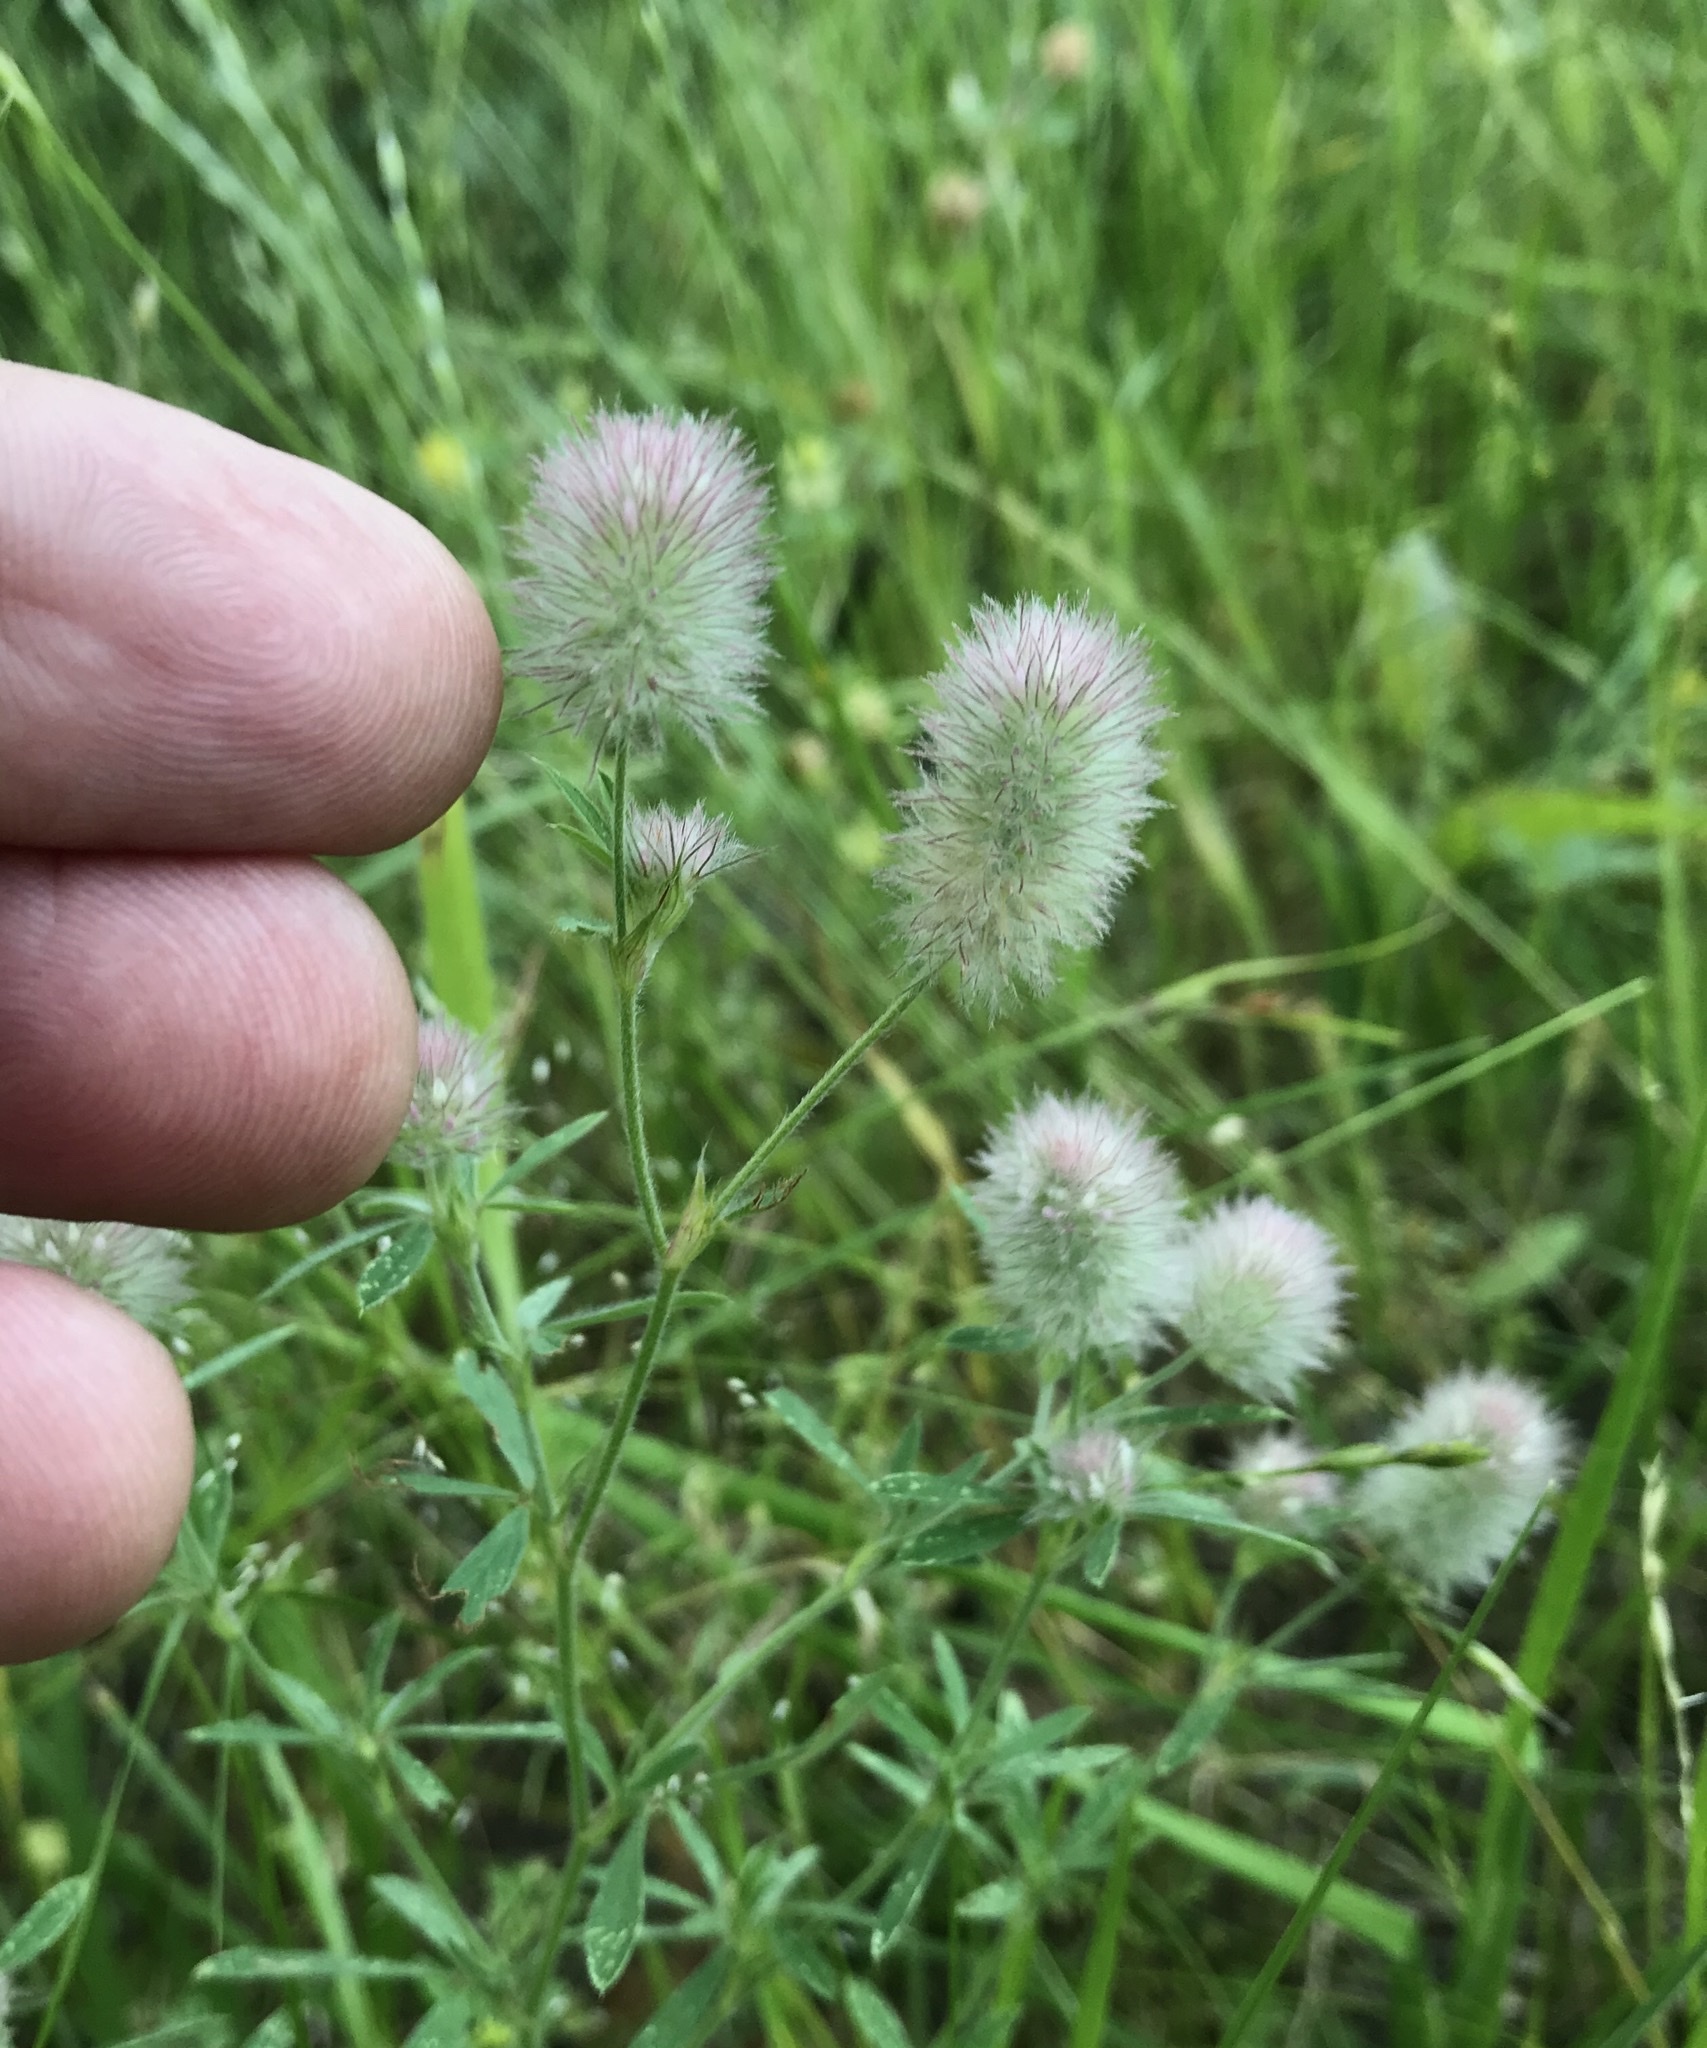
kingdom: Plantae
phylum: Tracheophyta
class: Magnoliopsida
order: Fabales
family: Fabaceae
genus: Trifolium
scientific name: Trifolium arvense
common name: Hare's-foot clover
